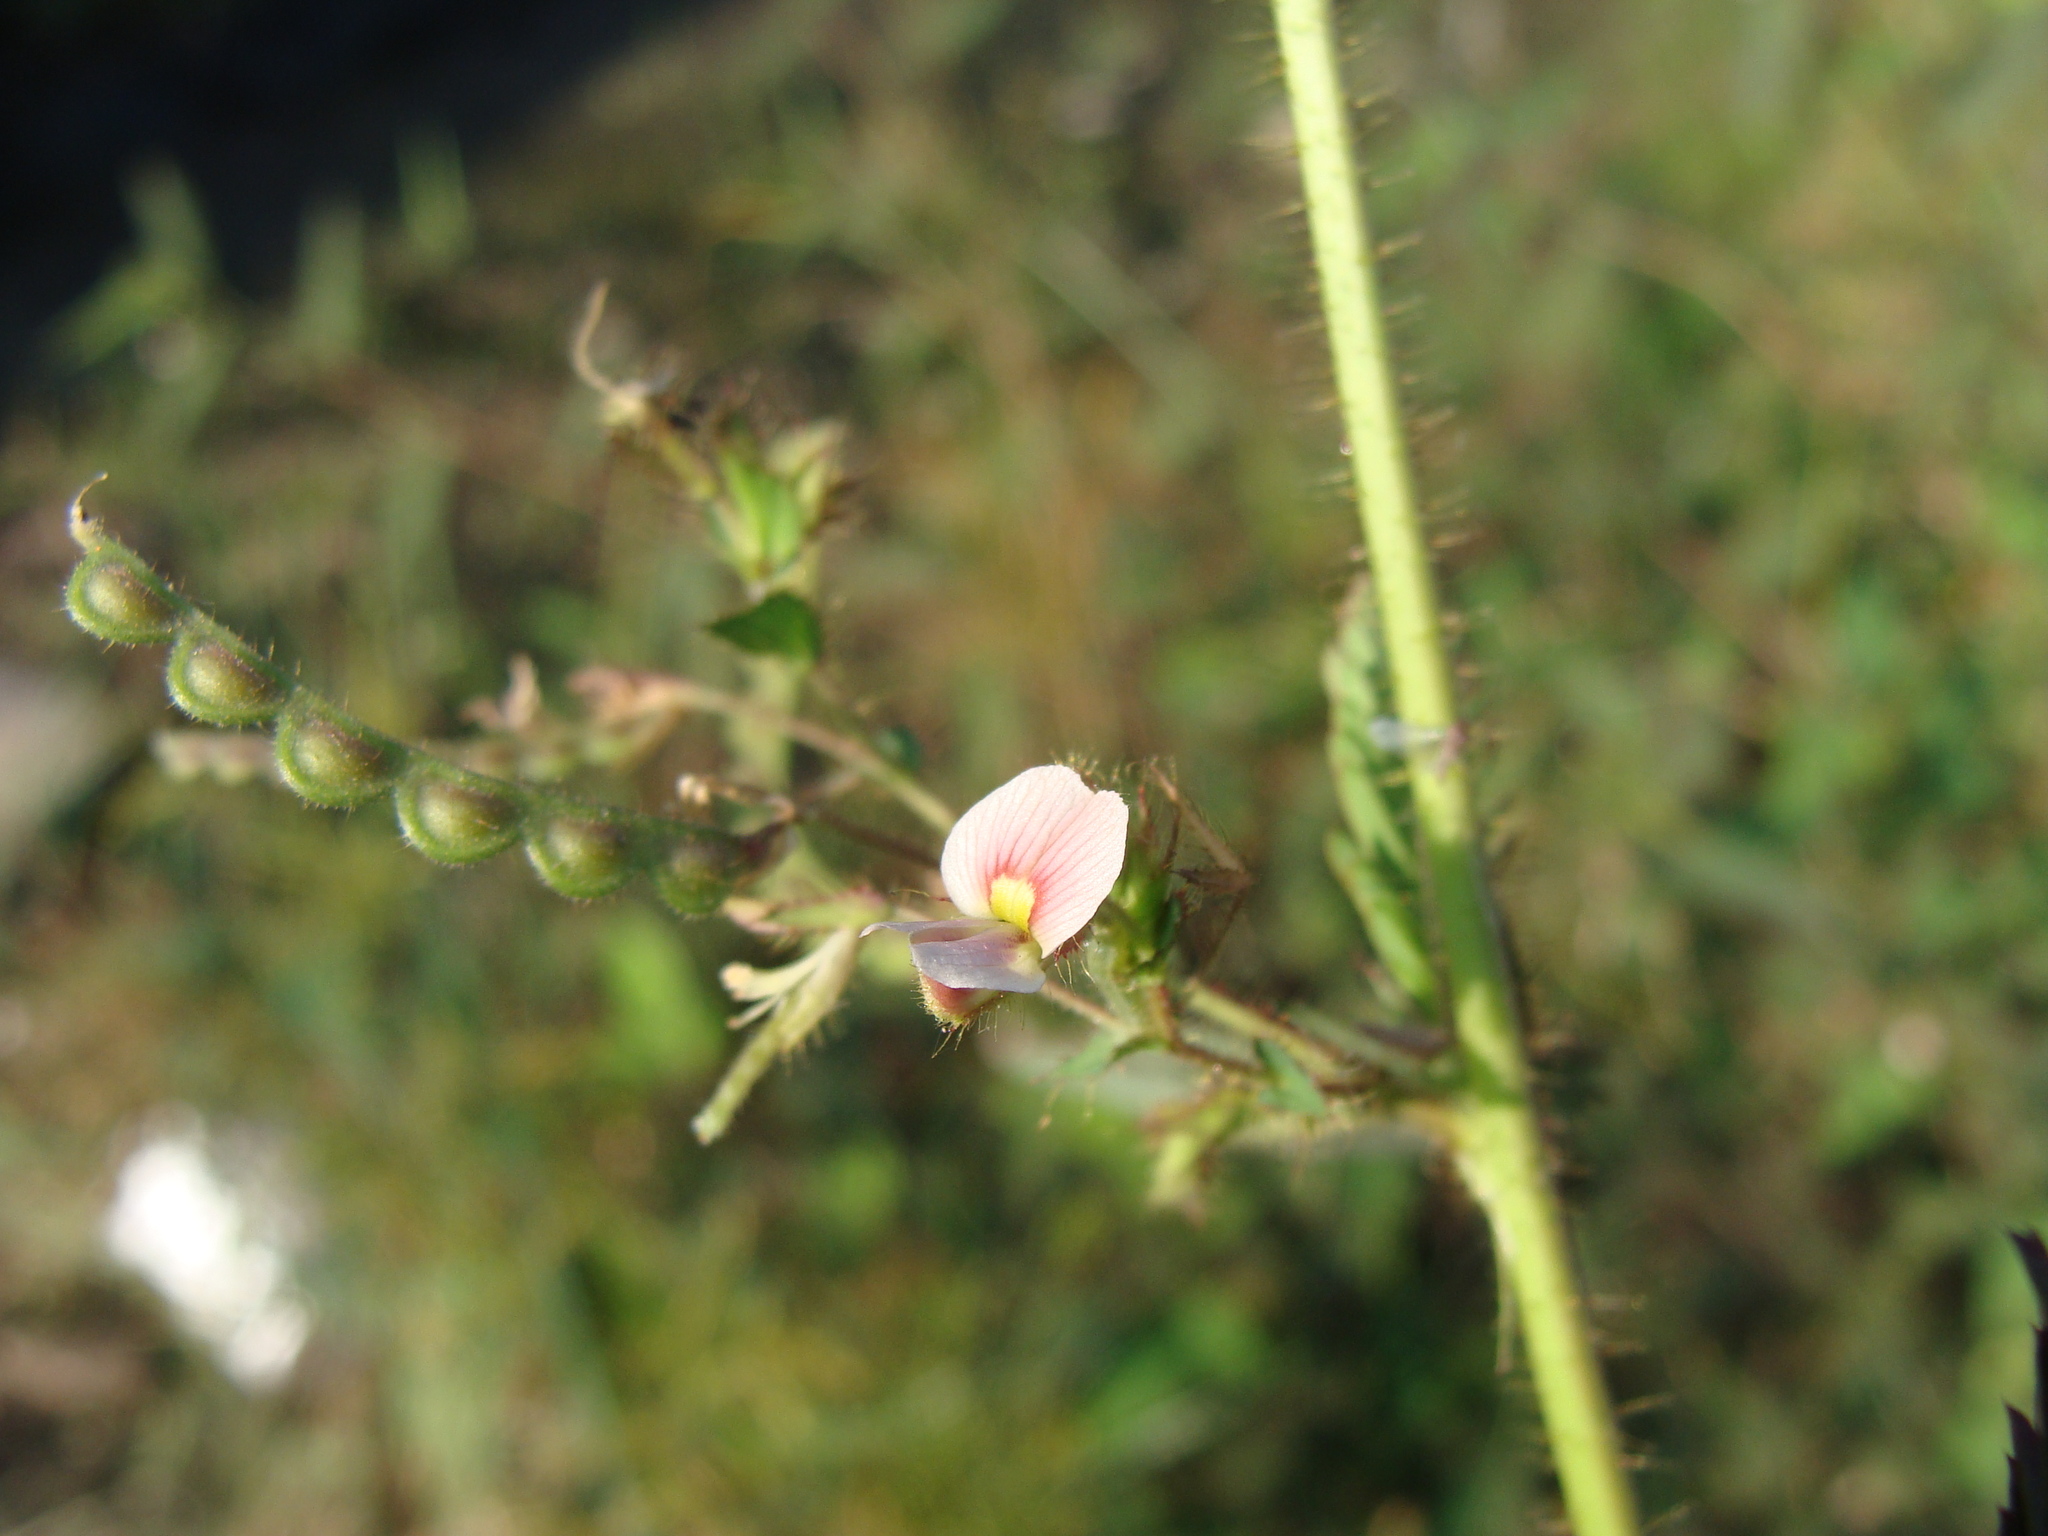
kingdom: Plantae
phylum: Tracheophyta
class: Magnoliopsida
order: Fabales
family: Fabaceae
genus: Aeschynomene
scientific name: Aeschynomene americana
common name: Joint-vetch
